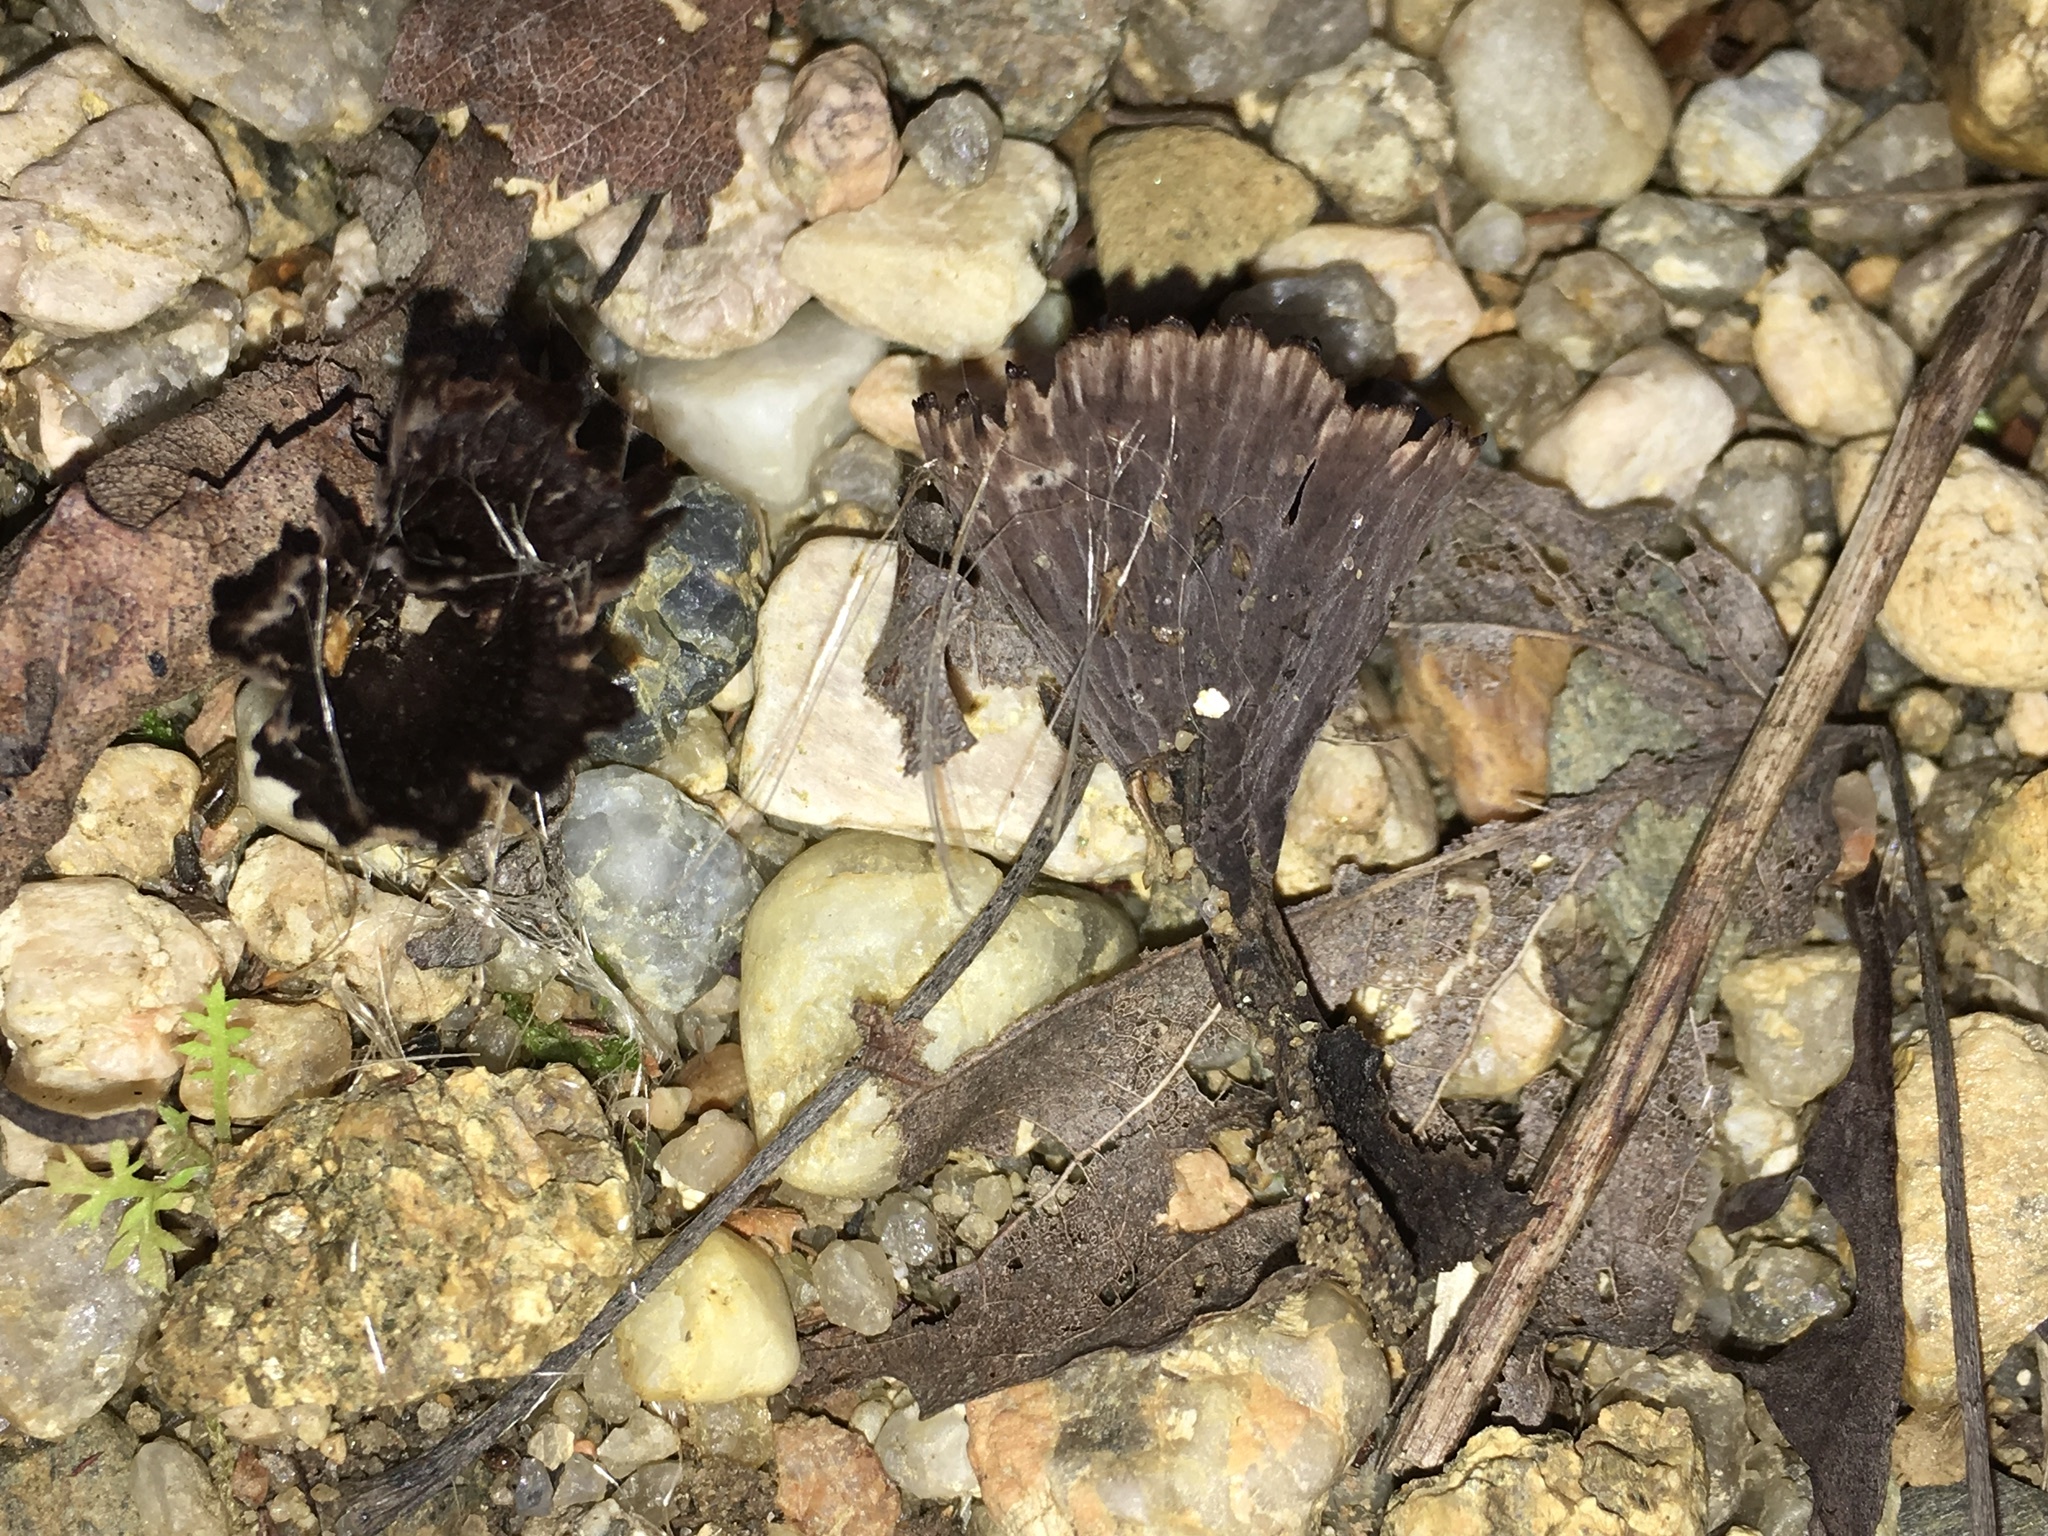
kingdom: Fungi
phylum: Basidiomycota
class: Agaricomycetes
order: Thelephorales
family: Thelephoraceae
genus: Thelephora
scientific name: Thelephora caryophyllea
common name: Carnation earthfan
